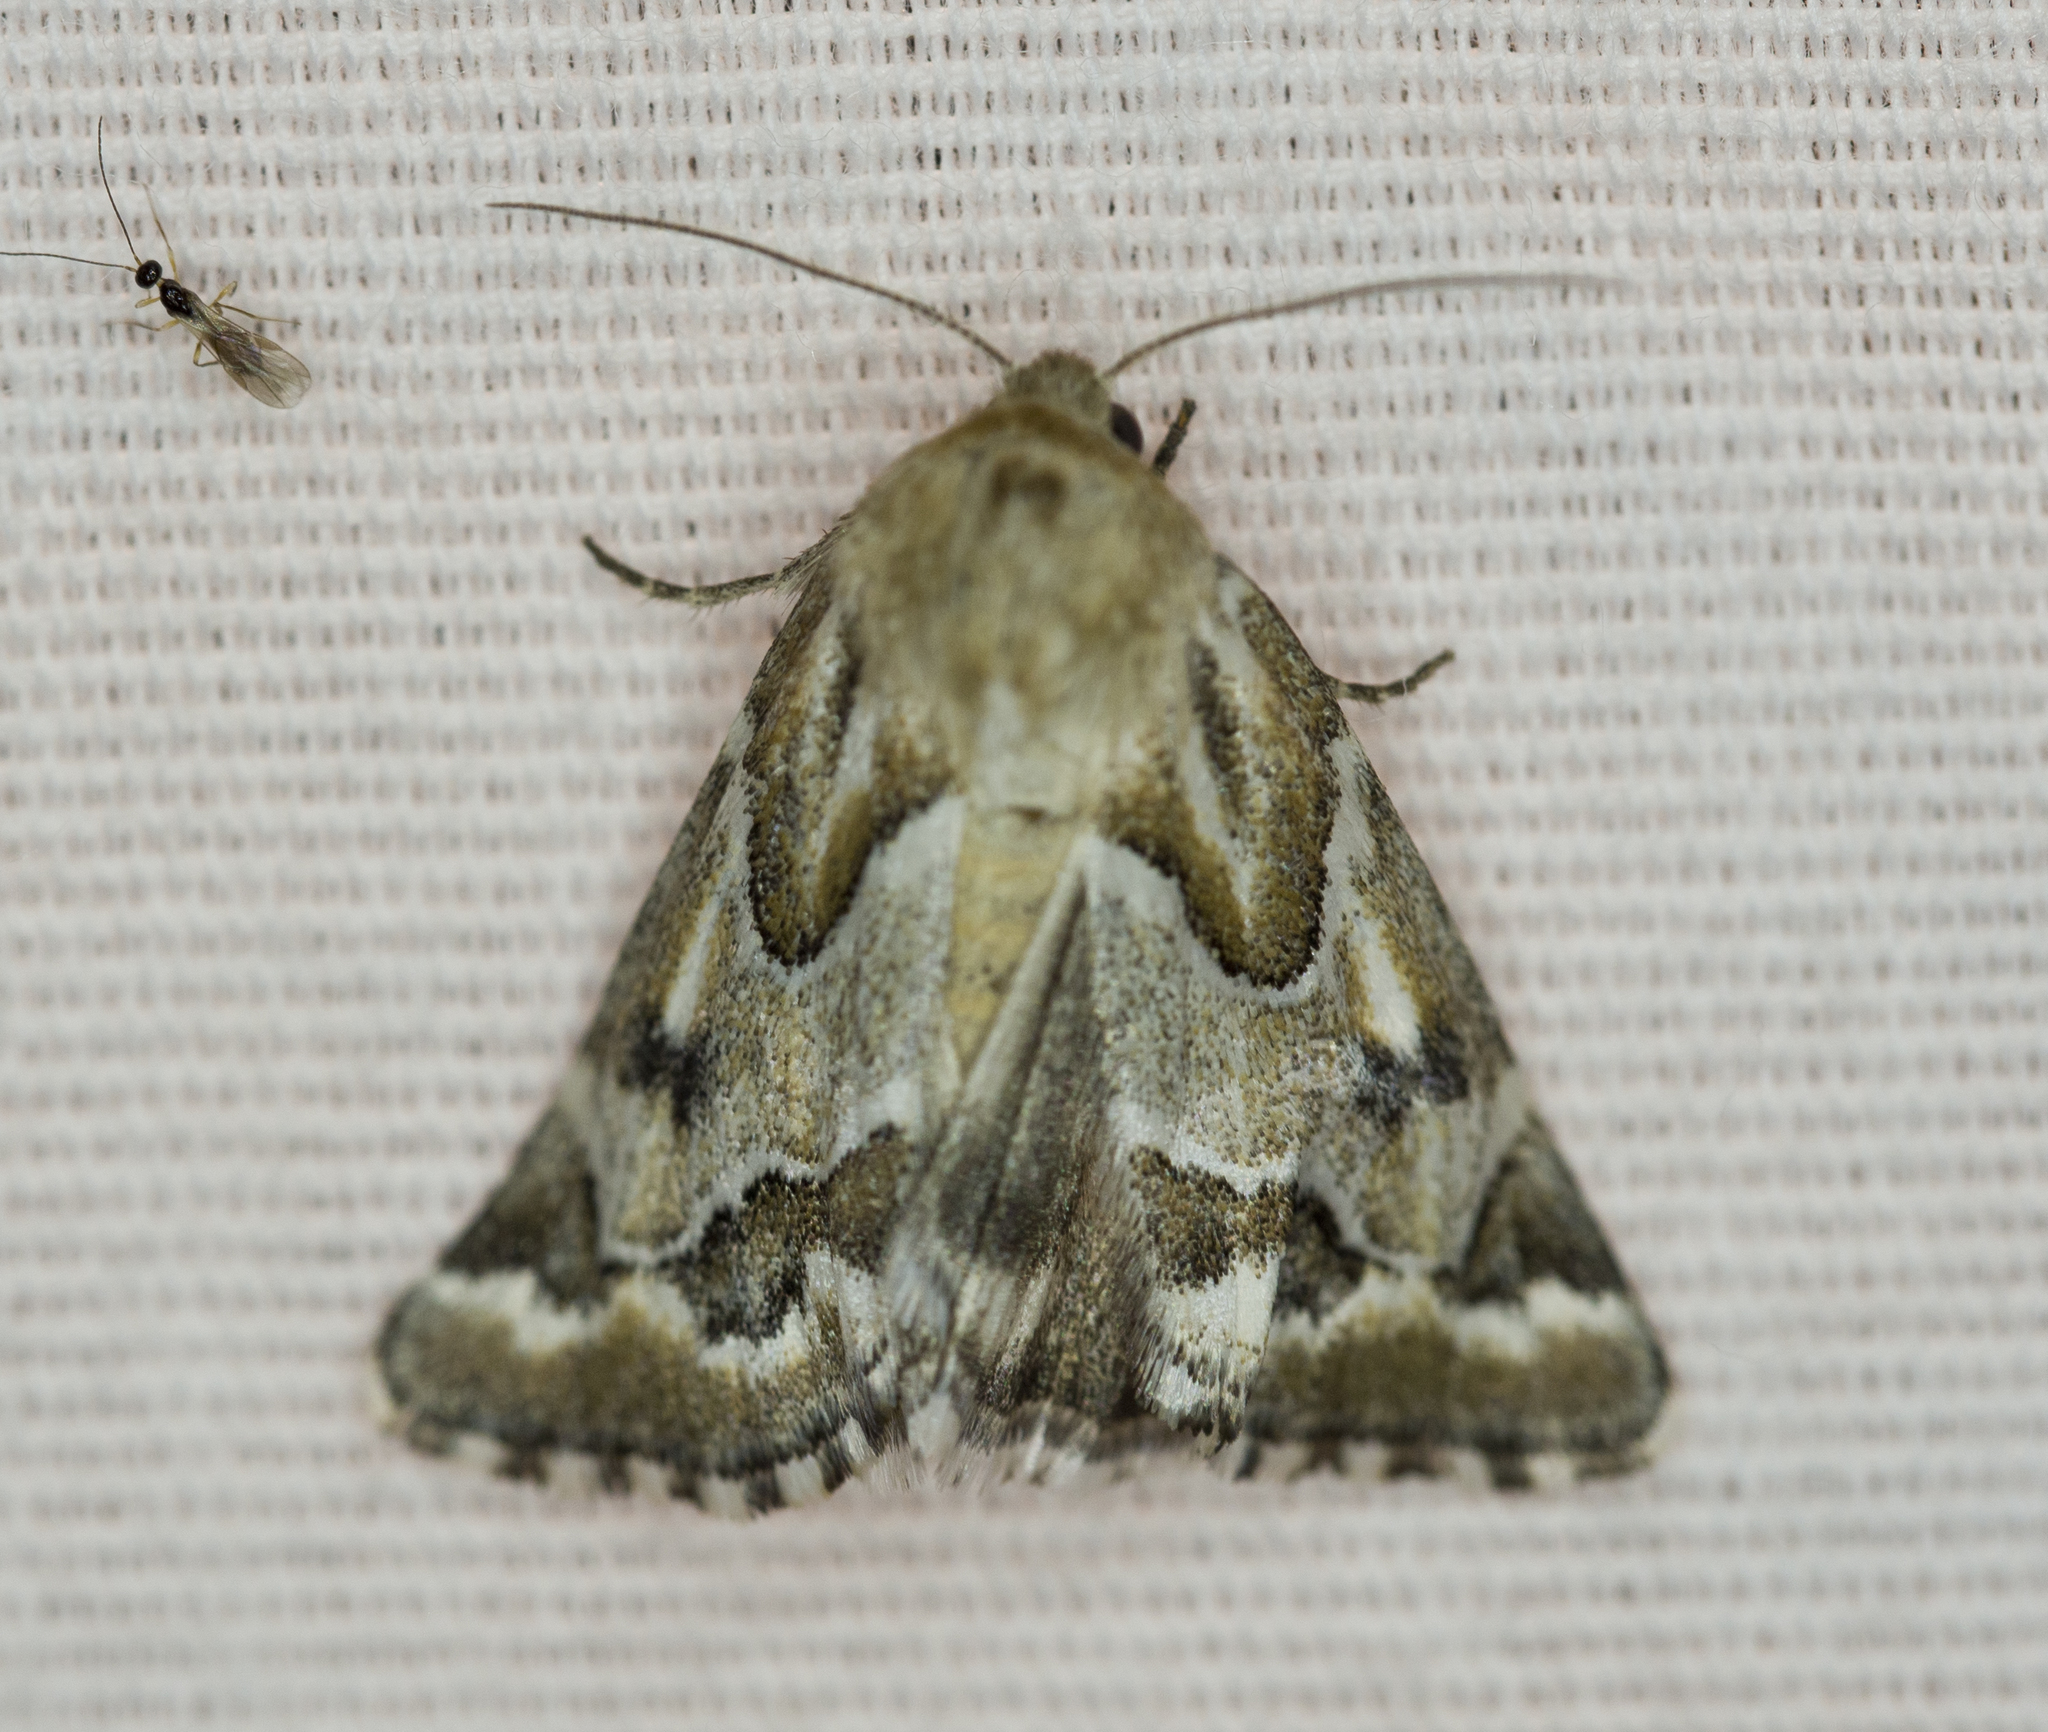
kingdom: Animalia
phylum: Arthropoda
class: Insecta
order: Lepidoptera
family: Noctuidae
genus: Schinia
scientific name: Schinia acutilinea
